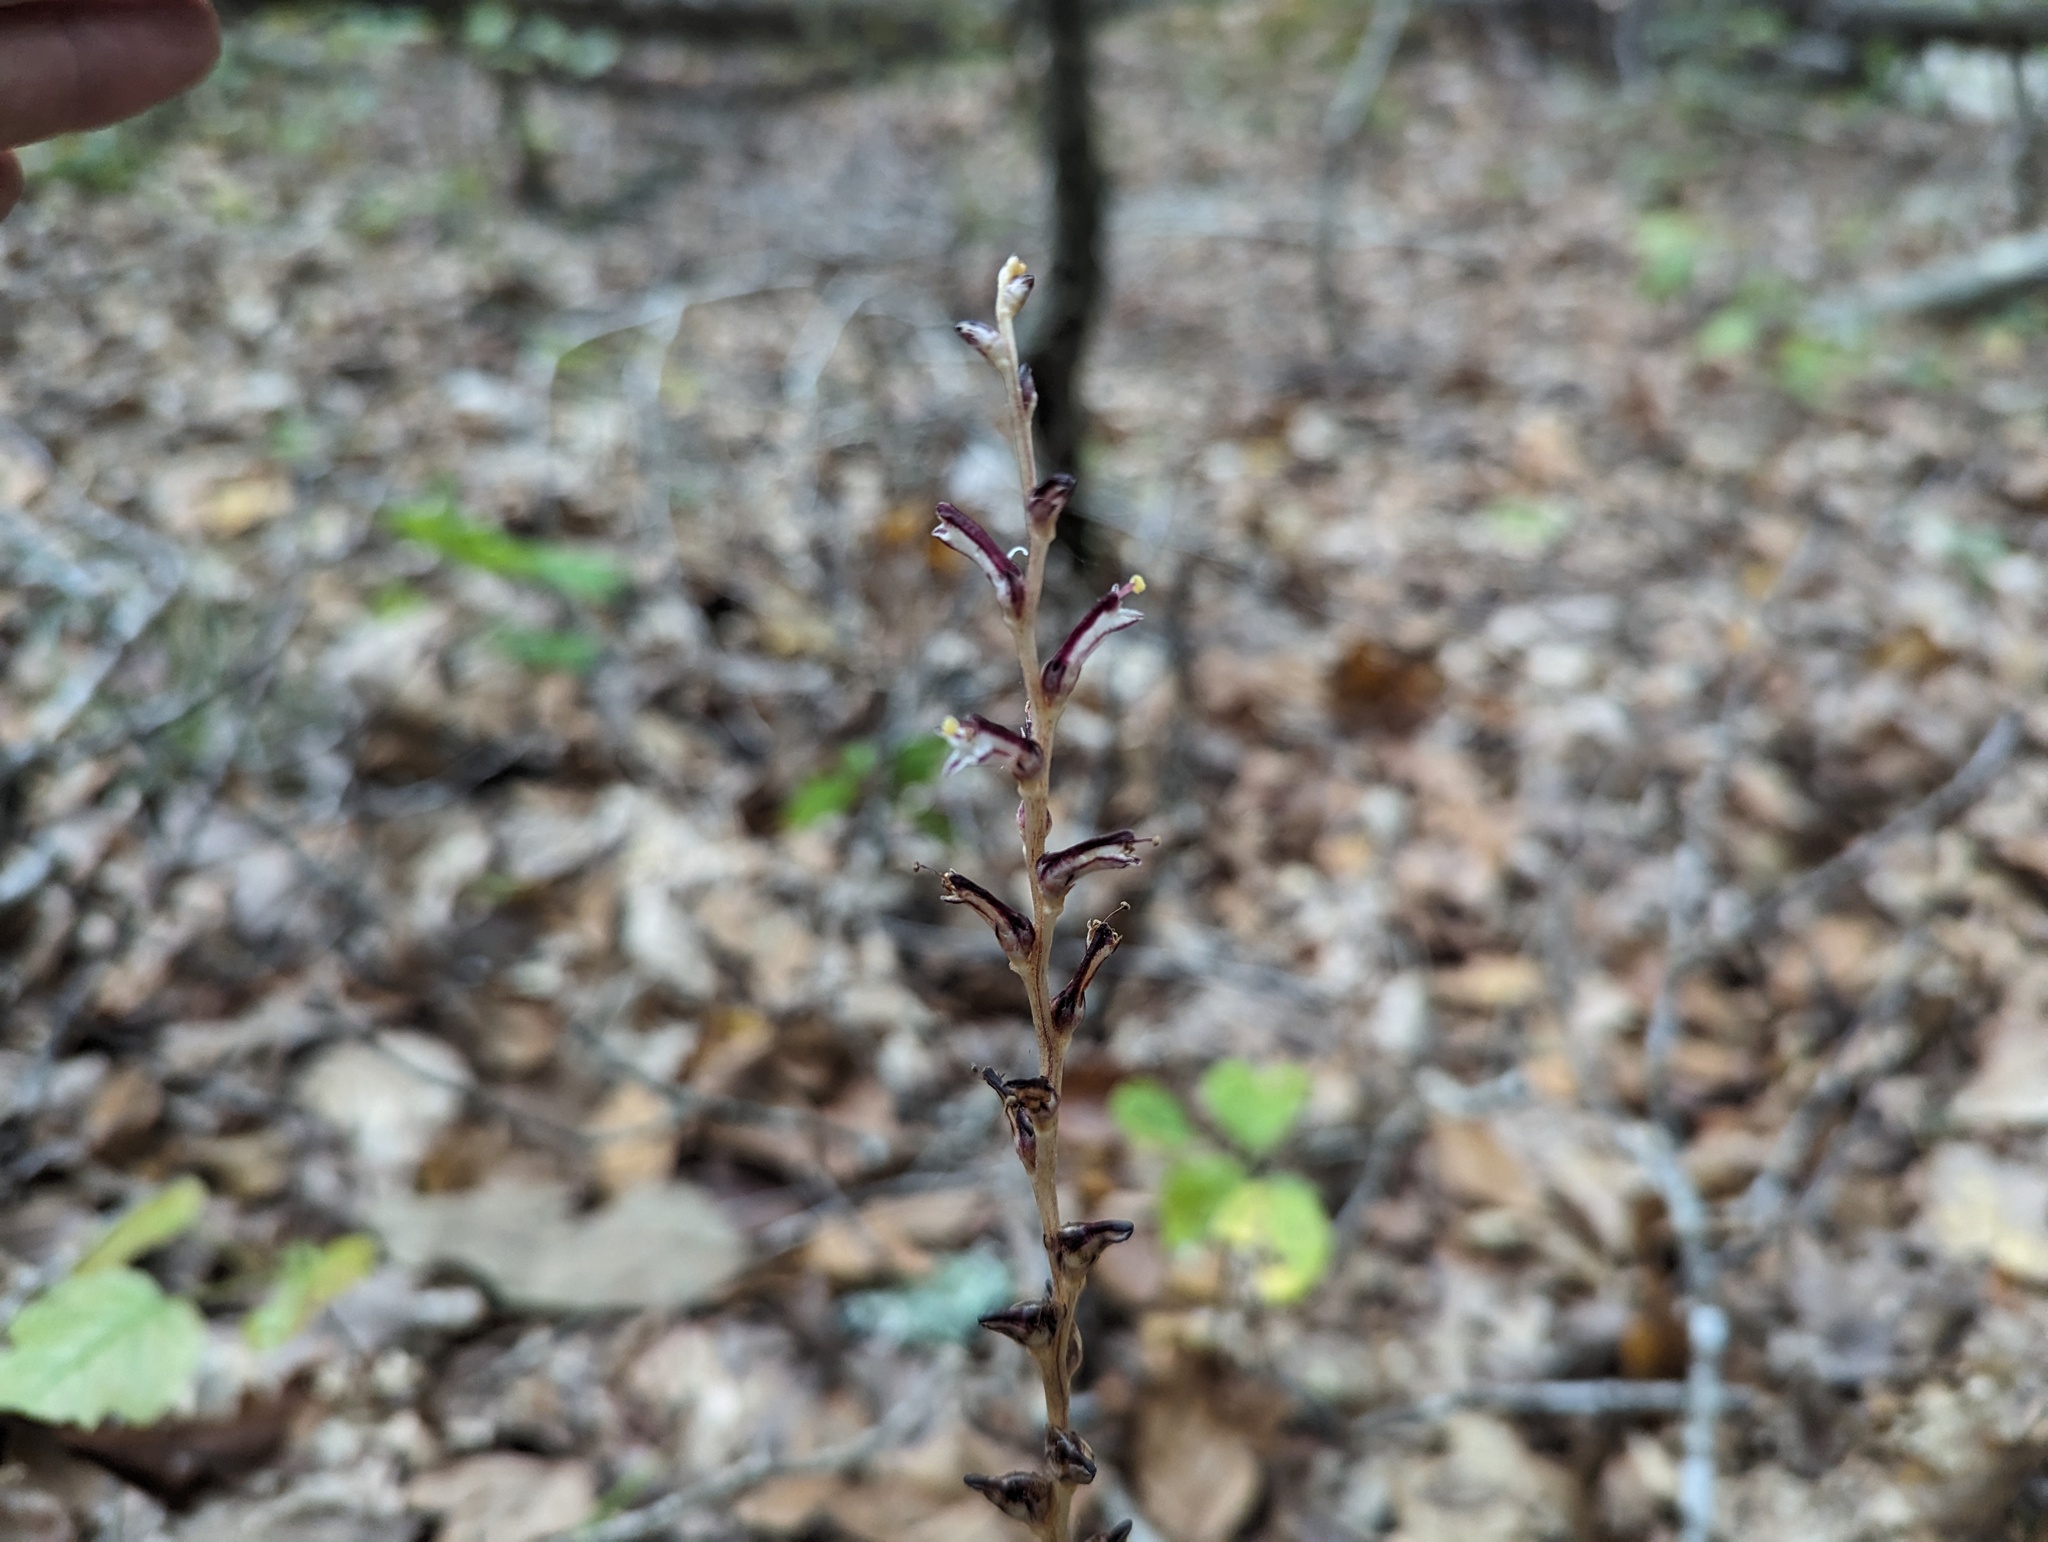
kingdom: Plantae
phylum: Tracheophyta
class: Magnoliopsida
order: Lamiales
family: Orobanchaceae
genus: Epifagus
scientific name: Epifagus virginiana
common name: Beechdrops
